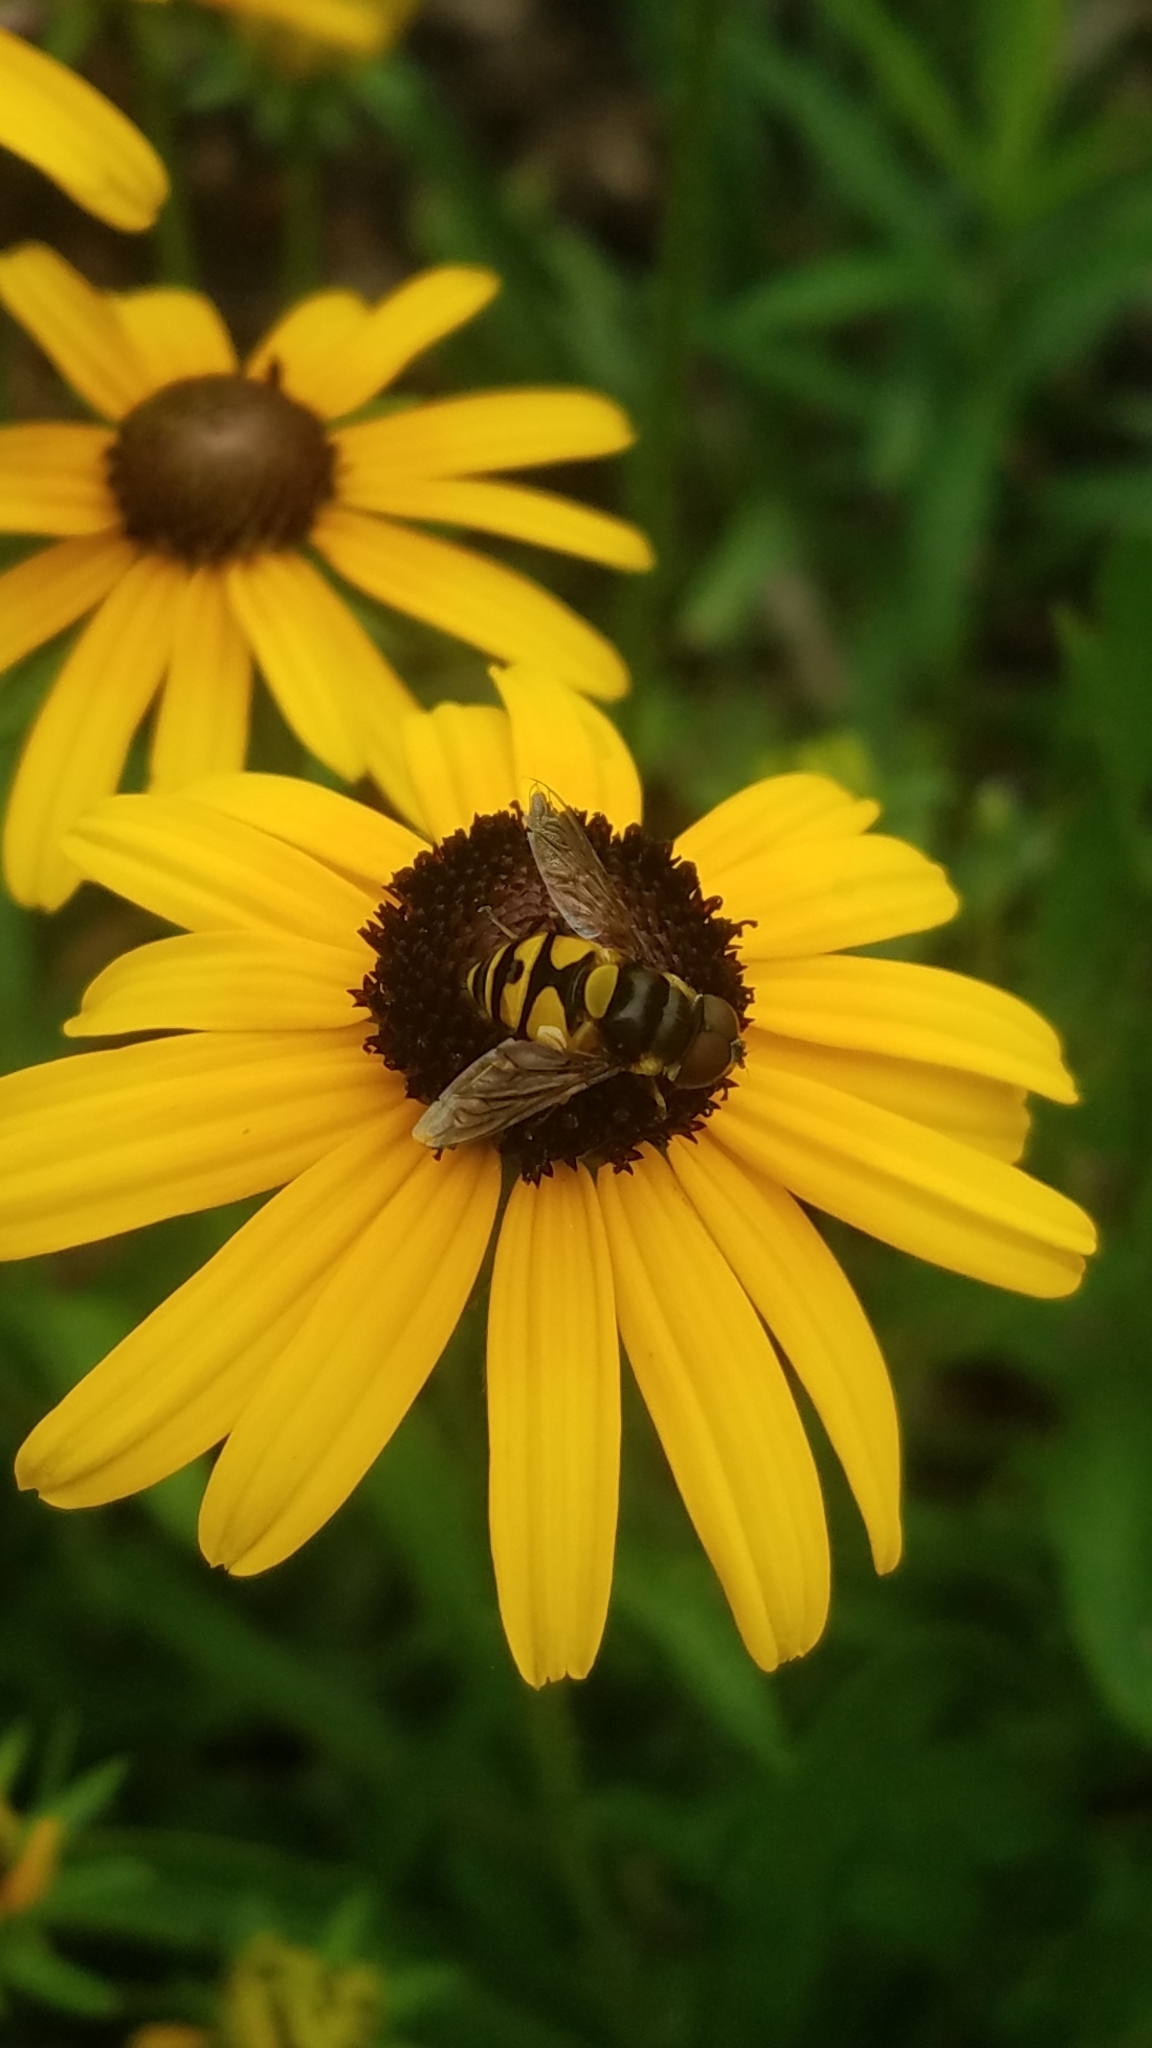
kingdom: Animalia
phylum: Arthropoda
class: Insecta
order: Diptera
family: Syrphidae
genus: Eristalis
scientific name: Eristalis transversa
